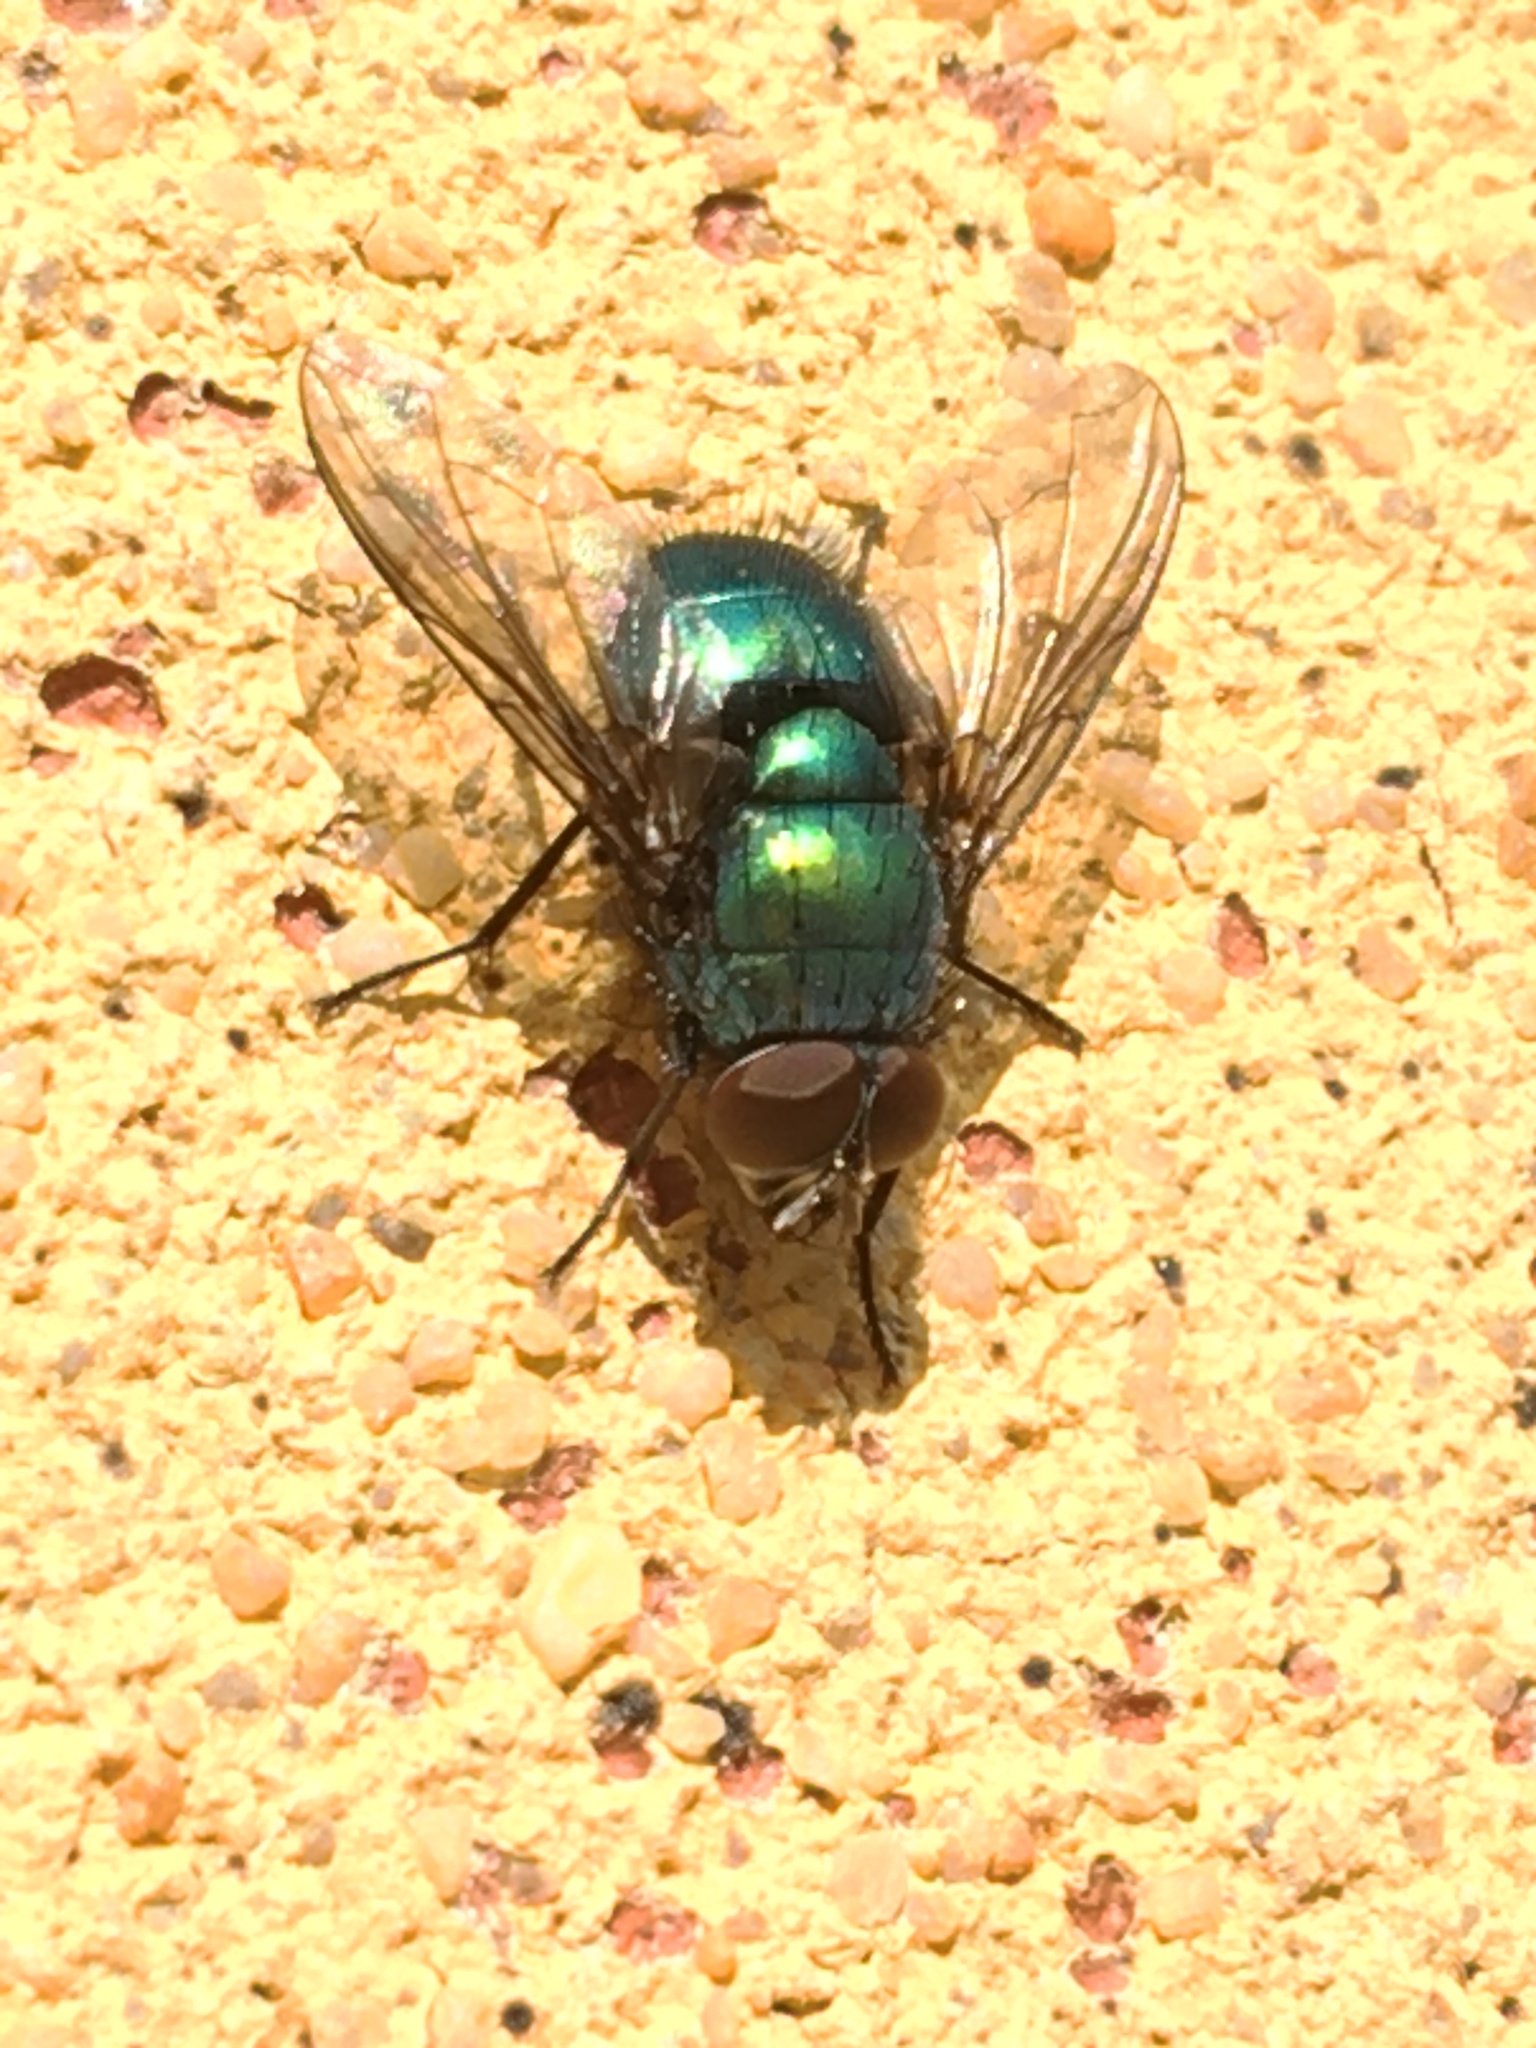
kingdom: Animalia
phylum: Arthropoda
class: Insecta
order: Diptera
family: Calliphoridae
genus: Lucilia
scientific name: Lucilia
